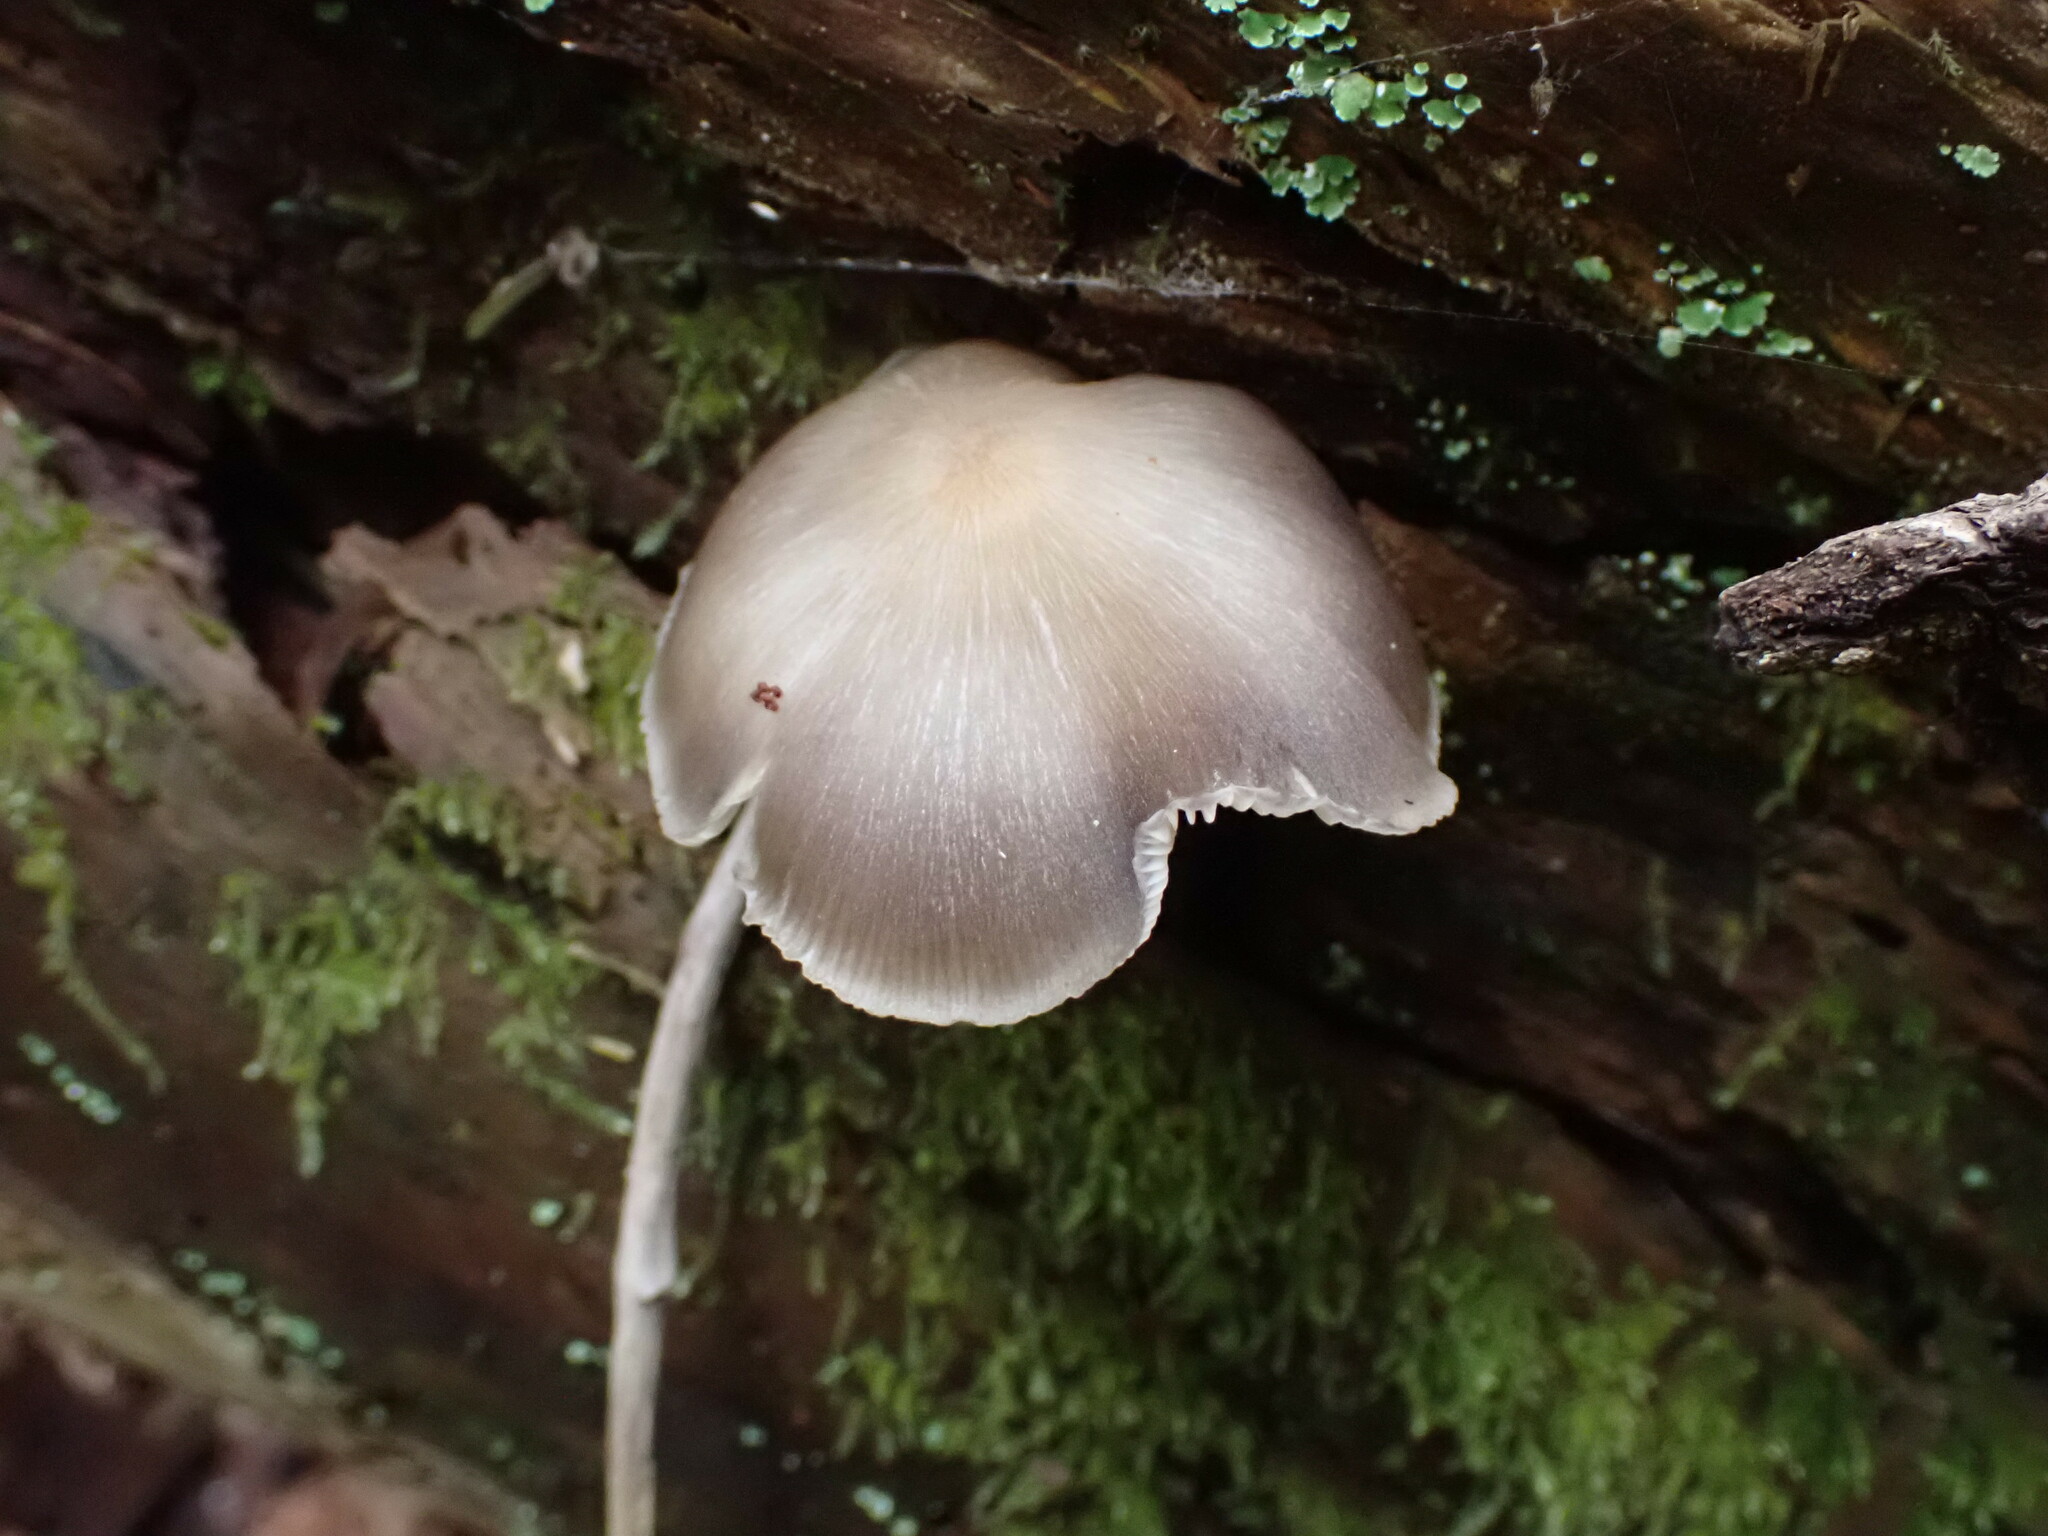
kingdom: Fungi
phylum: Basidiomycota
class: Agaricomycetes
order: Agaricales
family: Marasmiaceae
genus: Clitocybula
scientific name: Clitocybula lacerata
